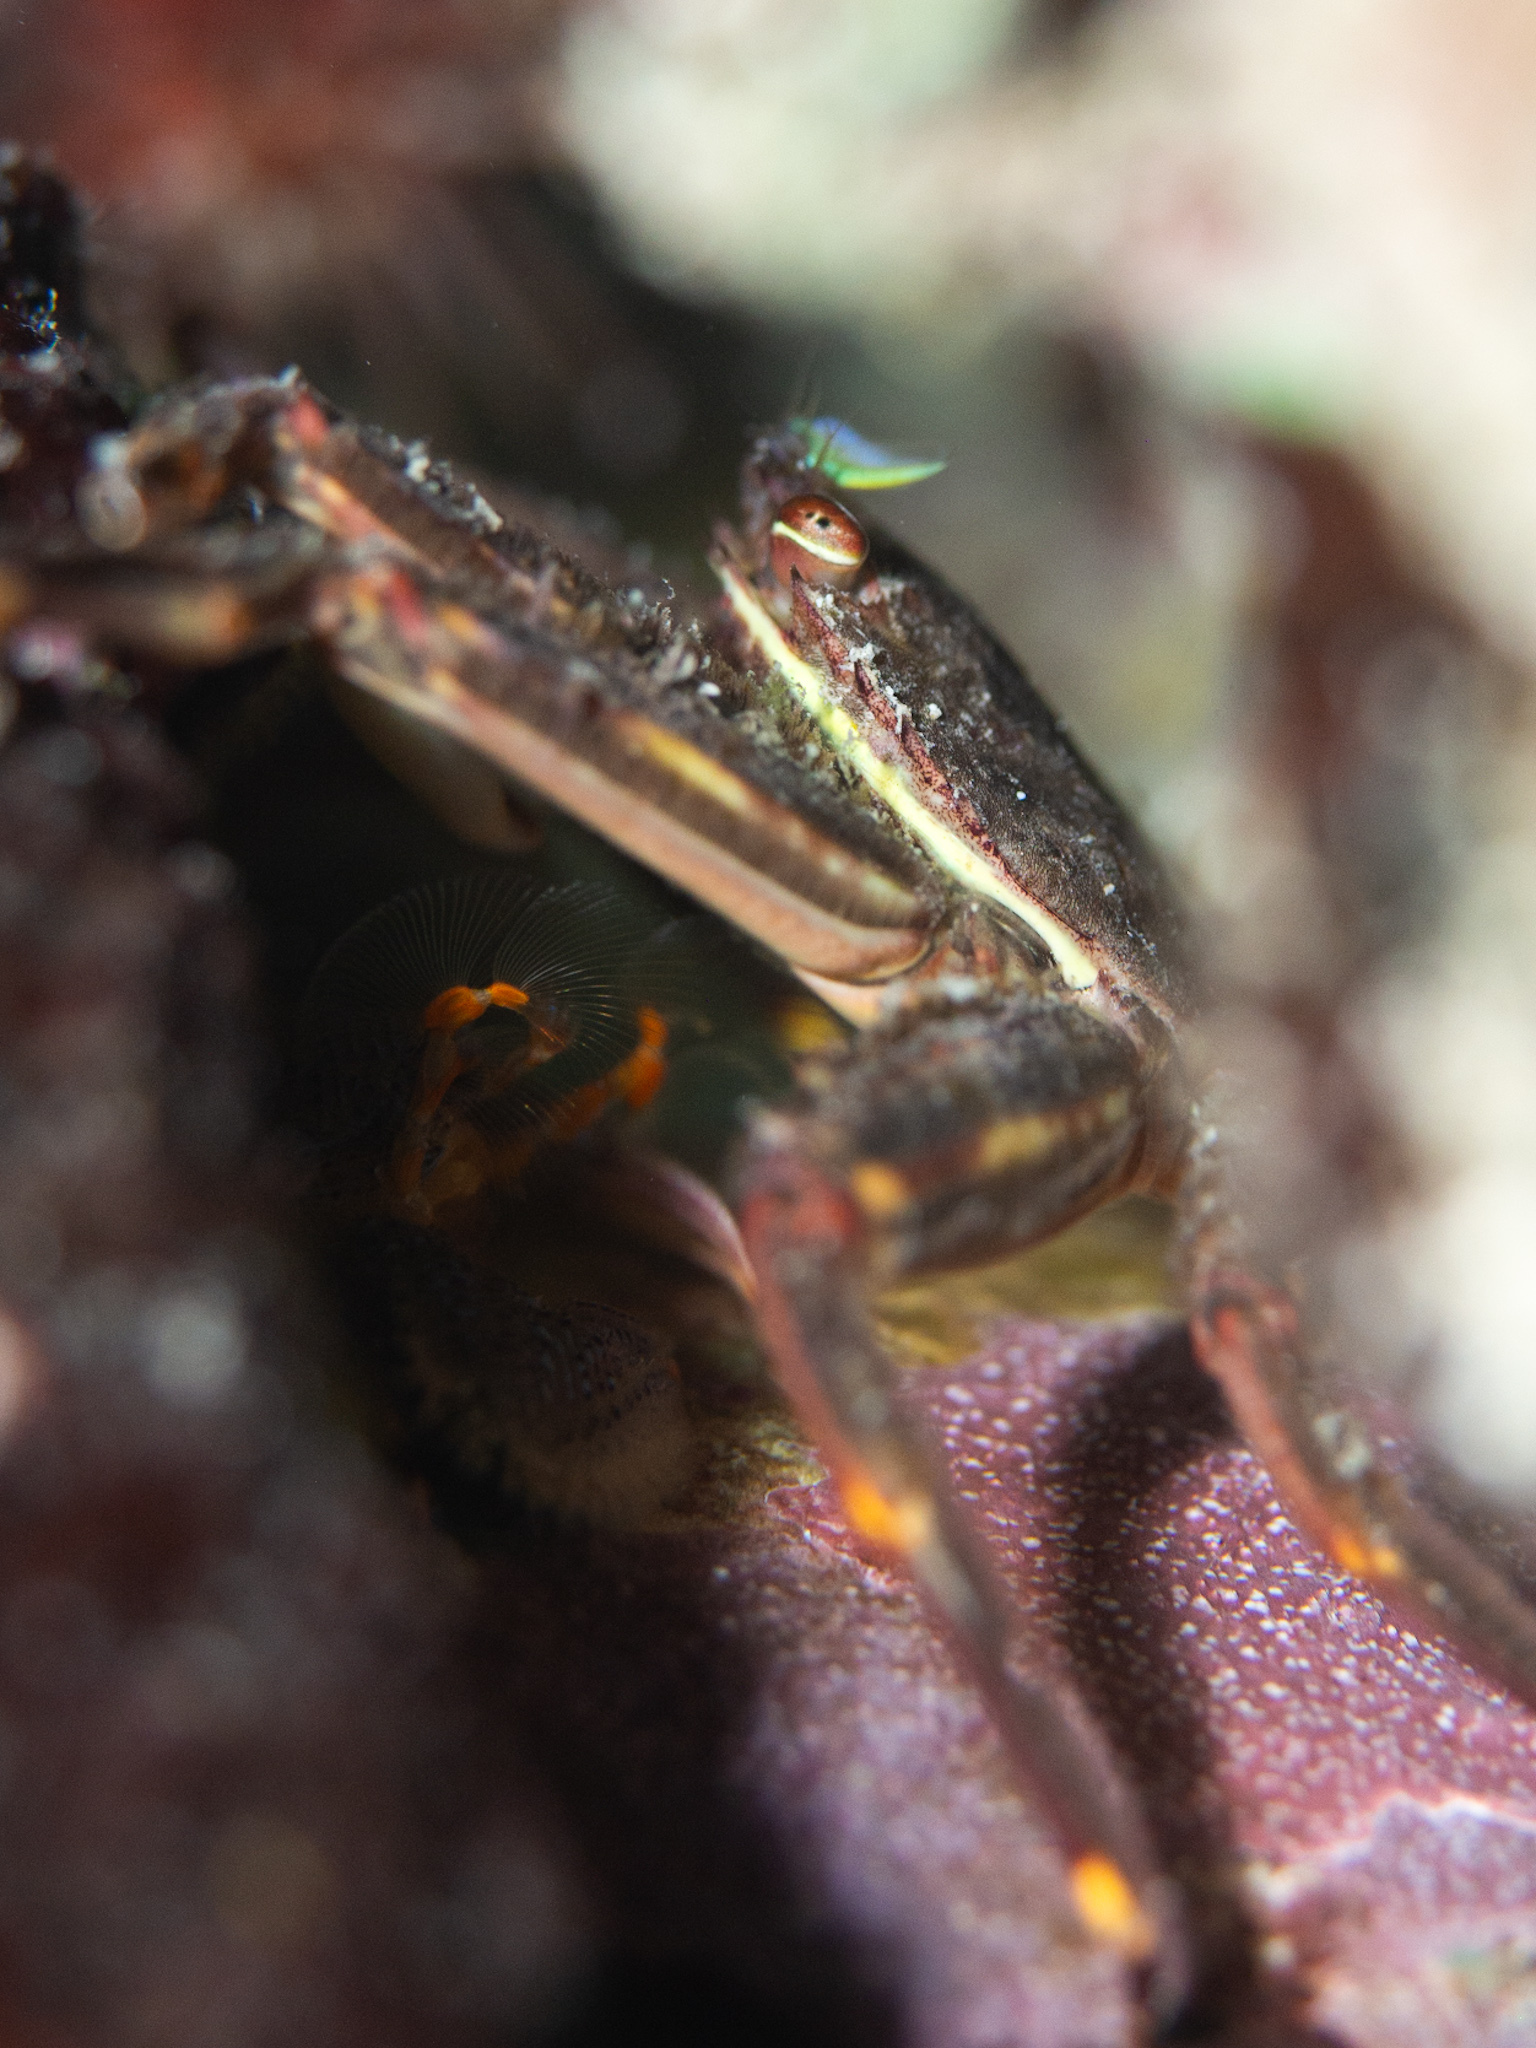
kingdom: Animalia
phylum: Arthropoda
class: Malacostraca
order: Decapoda
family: Percnidae
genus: Percnon
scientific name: Percnon gibbesi
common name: Nimble spray crab
